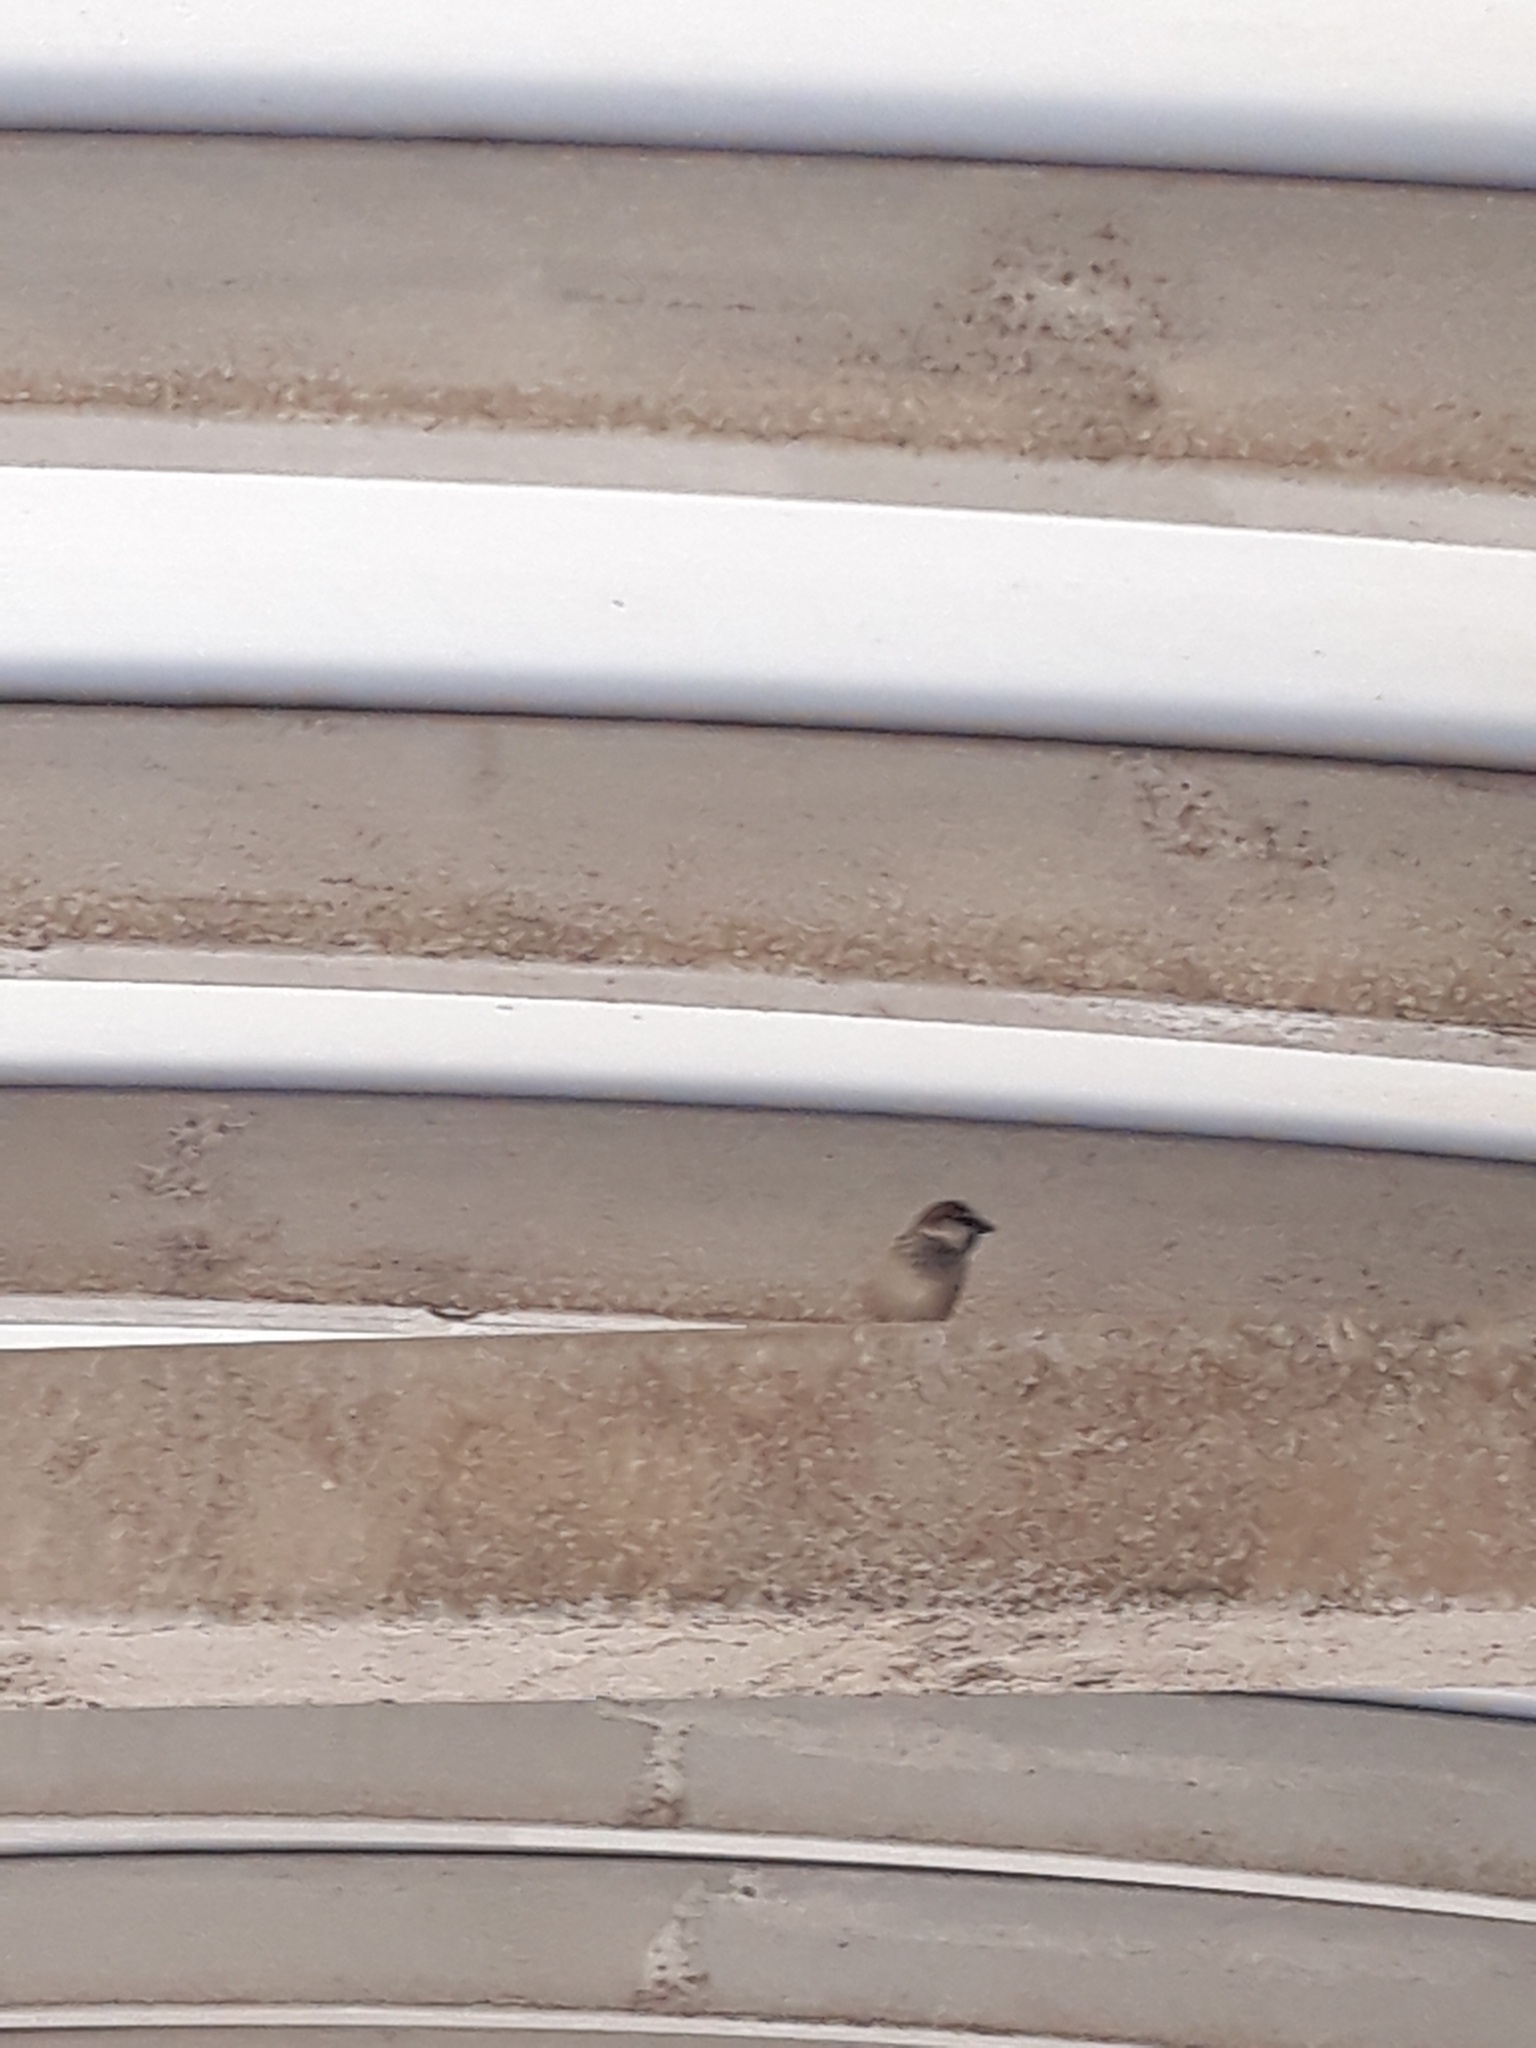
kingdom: Animalia
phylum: Chordata
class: Aves
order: Passeriformes
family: Passeridae
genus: Passer
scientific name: Passer domesticus
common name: House sparrow
